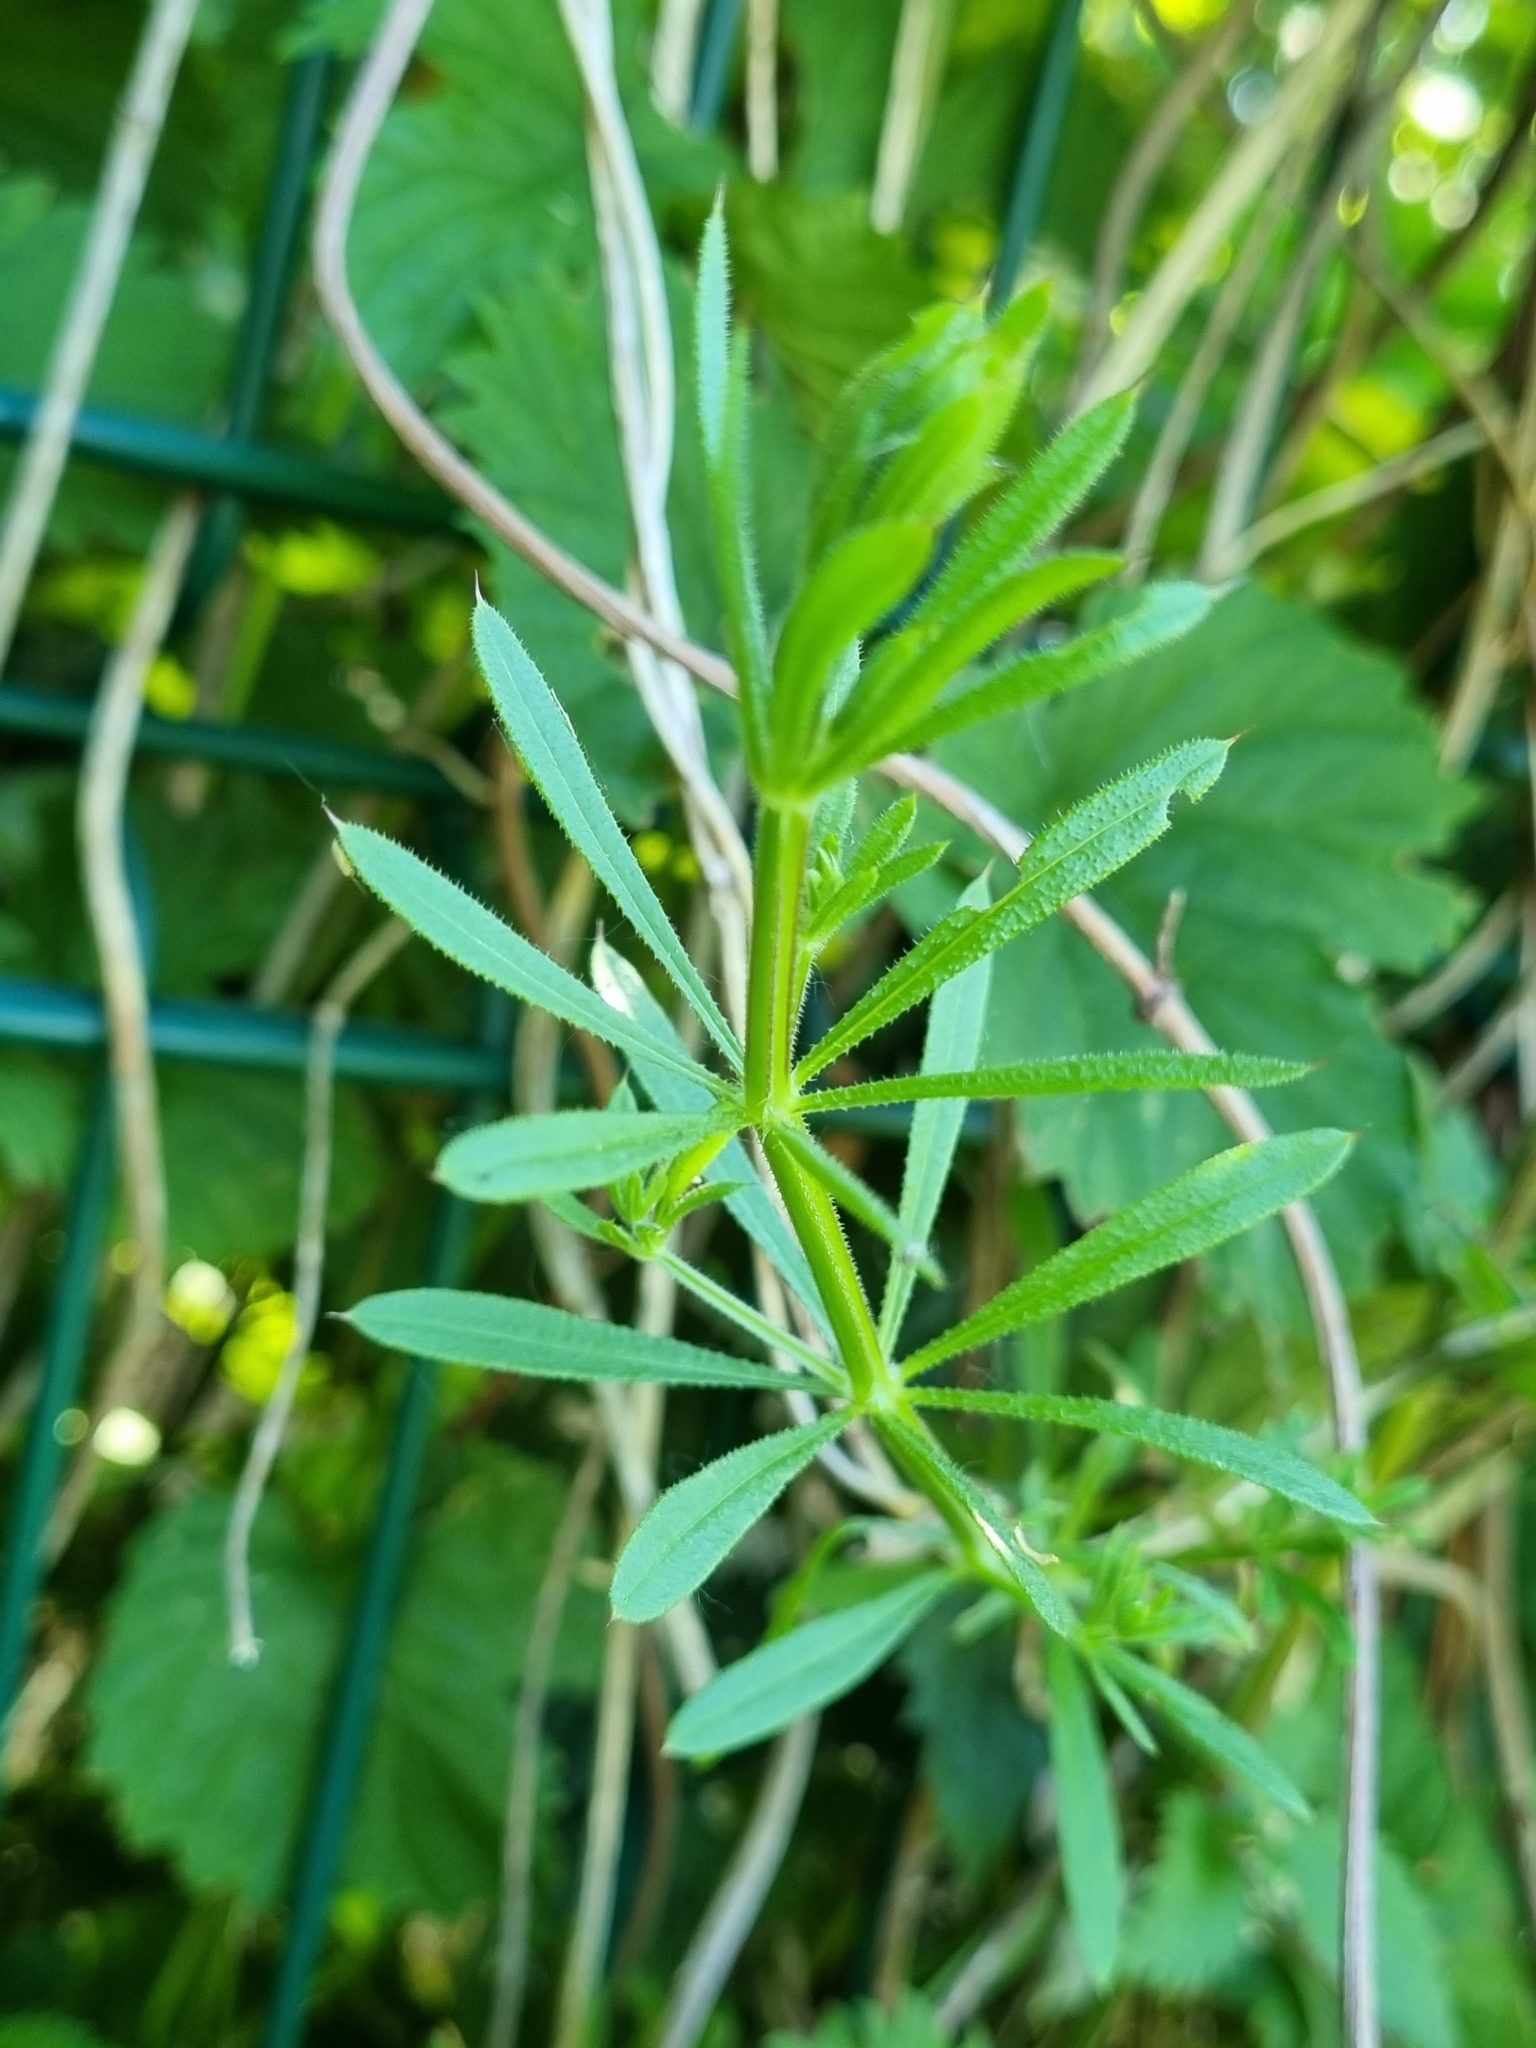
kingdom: Plantae
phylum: Tracheophyta
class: Magnoliopsida
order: Gentianales
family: Rubiaceae
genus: Galium
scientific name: Galium aparine
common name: Cleavers
